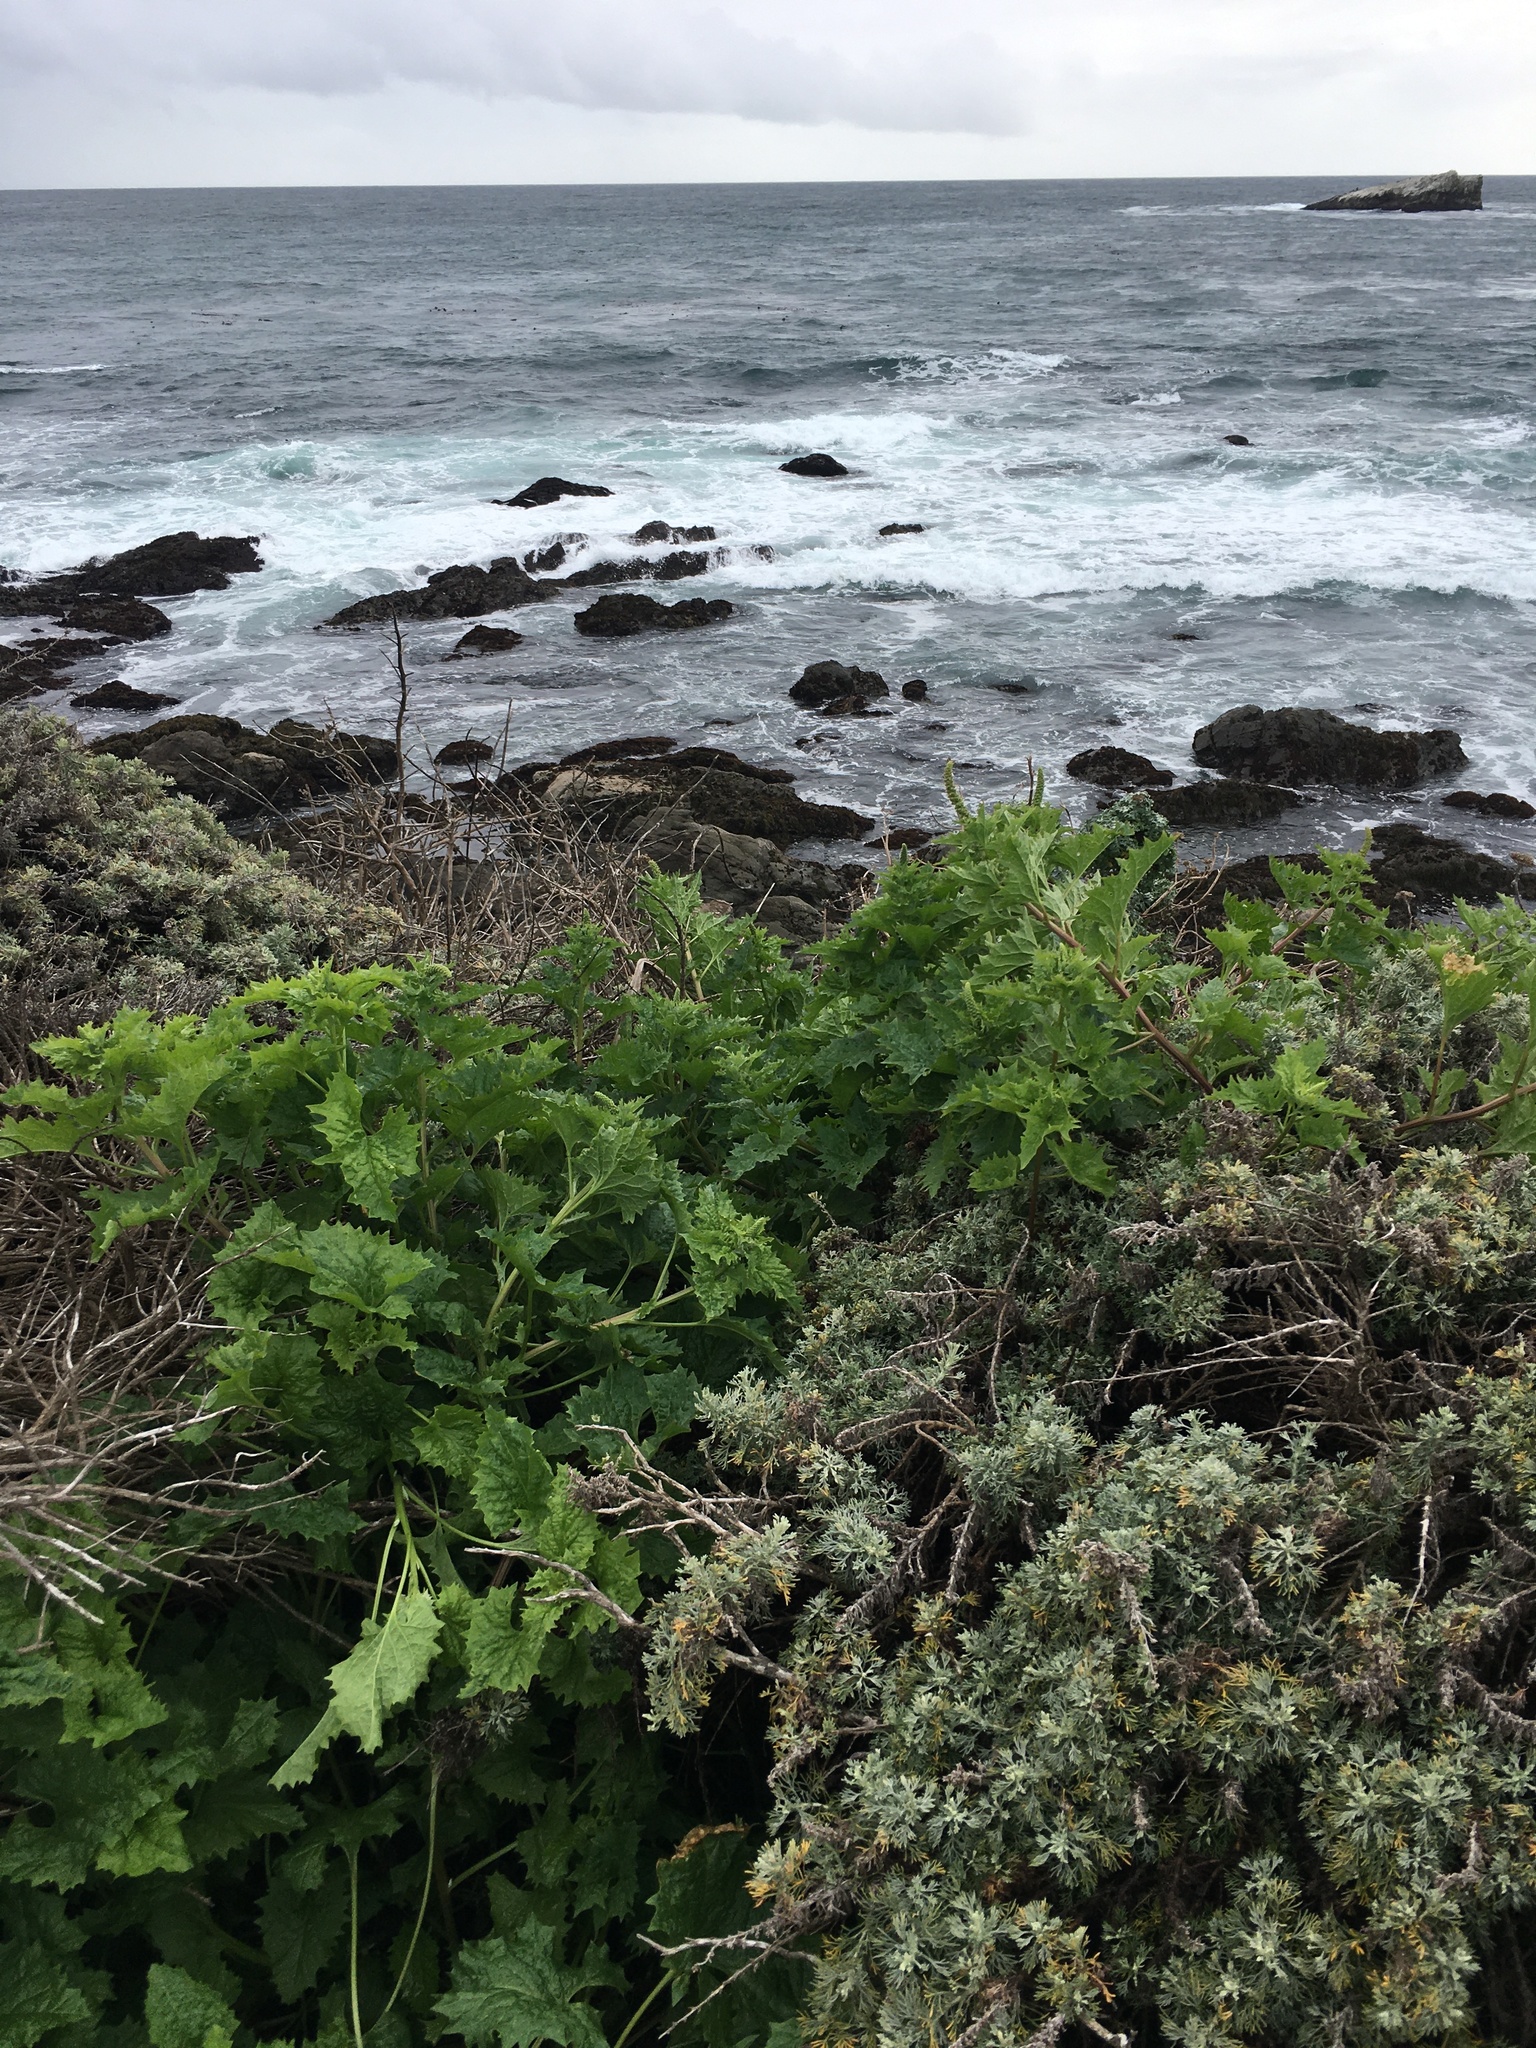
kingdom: Plantae
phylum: Tracheophyta
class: Magnoliopsida
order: Caryophyllales
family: Amaranthaceae
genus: Blitum
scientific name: Blitum californicum
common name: California goosefoot
